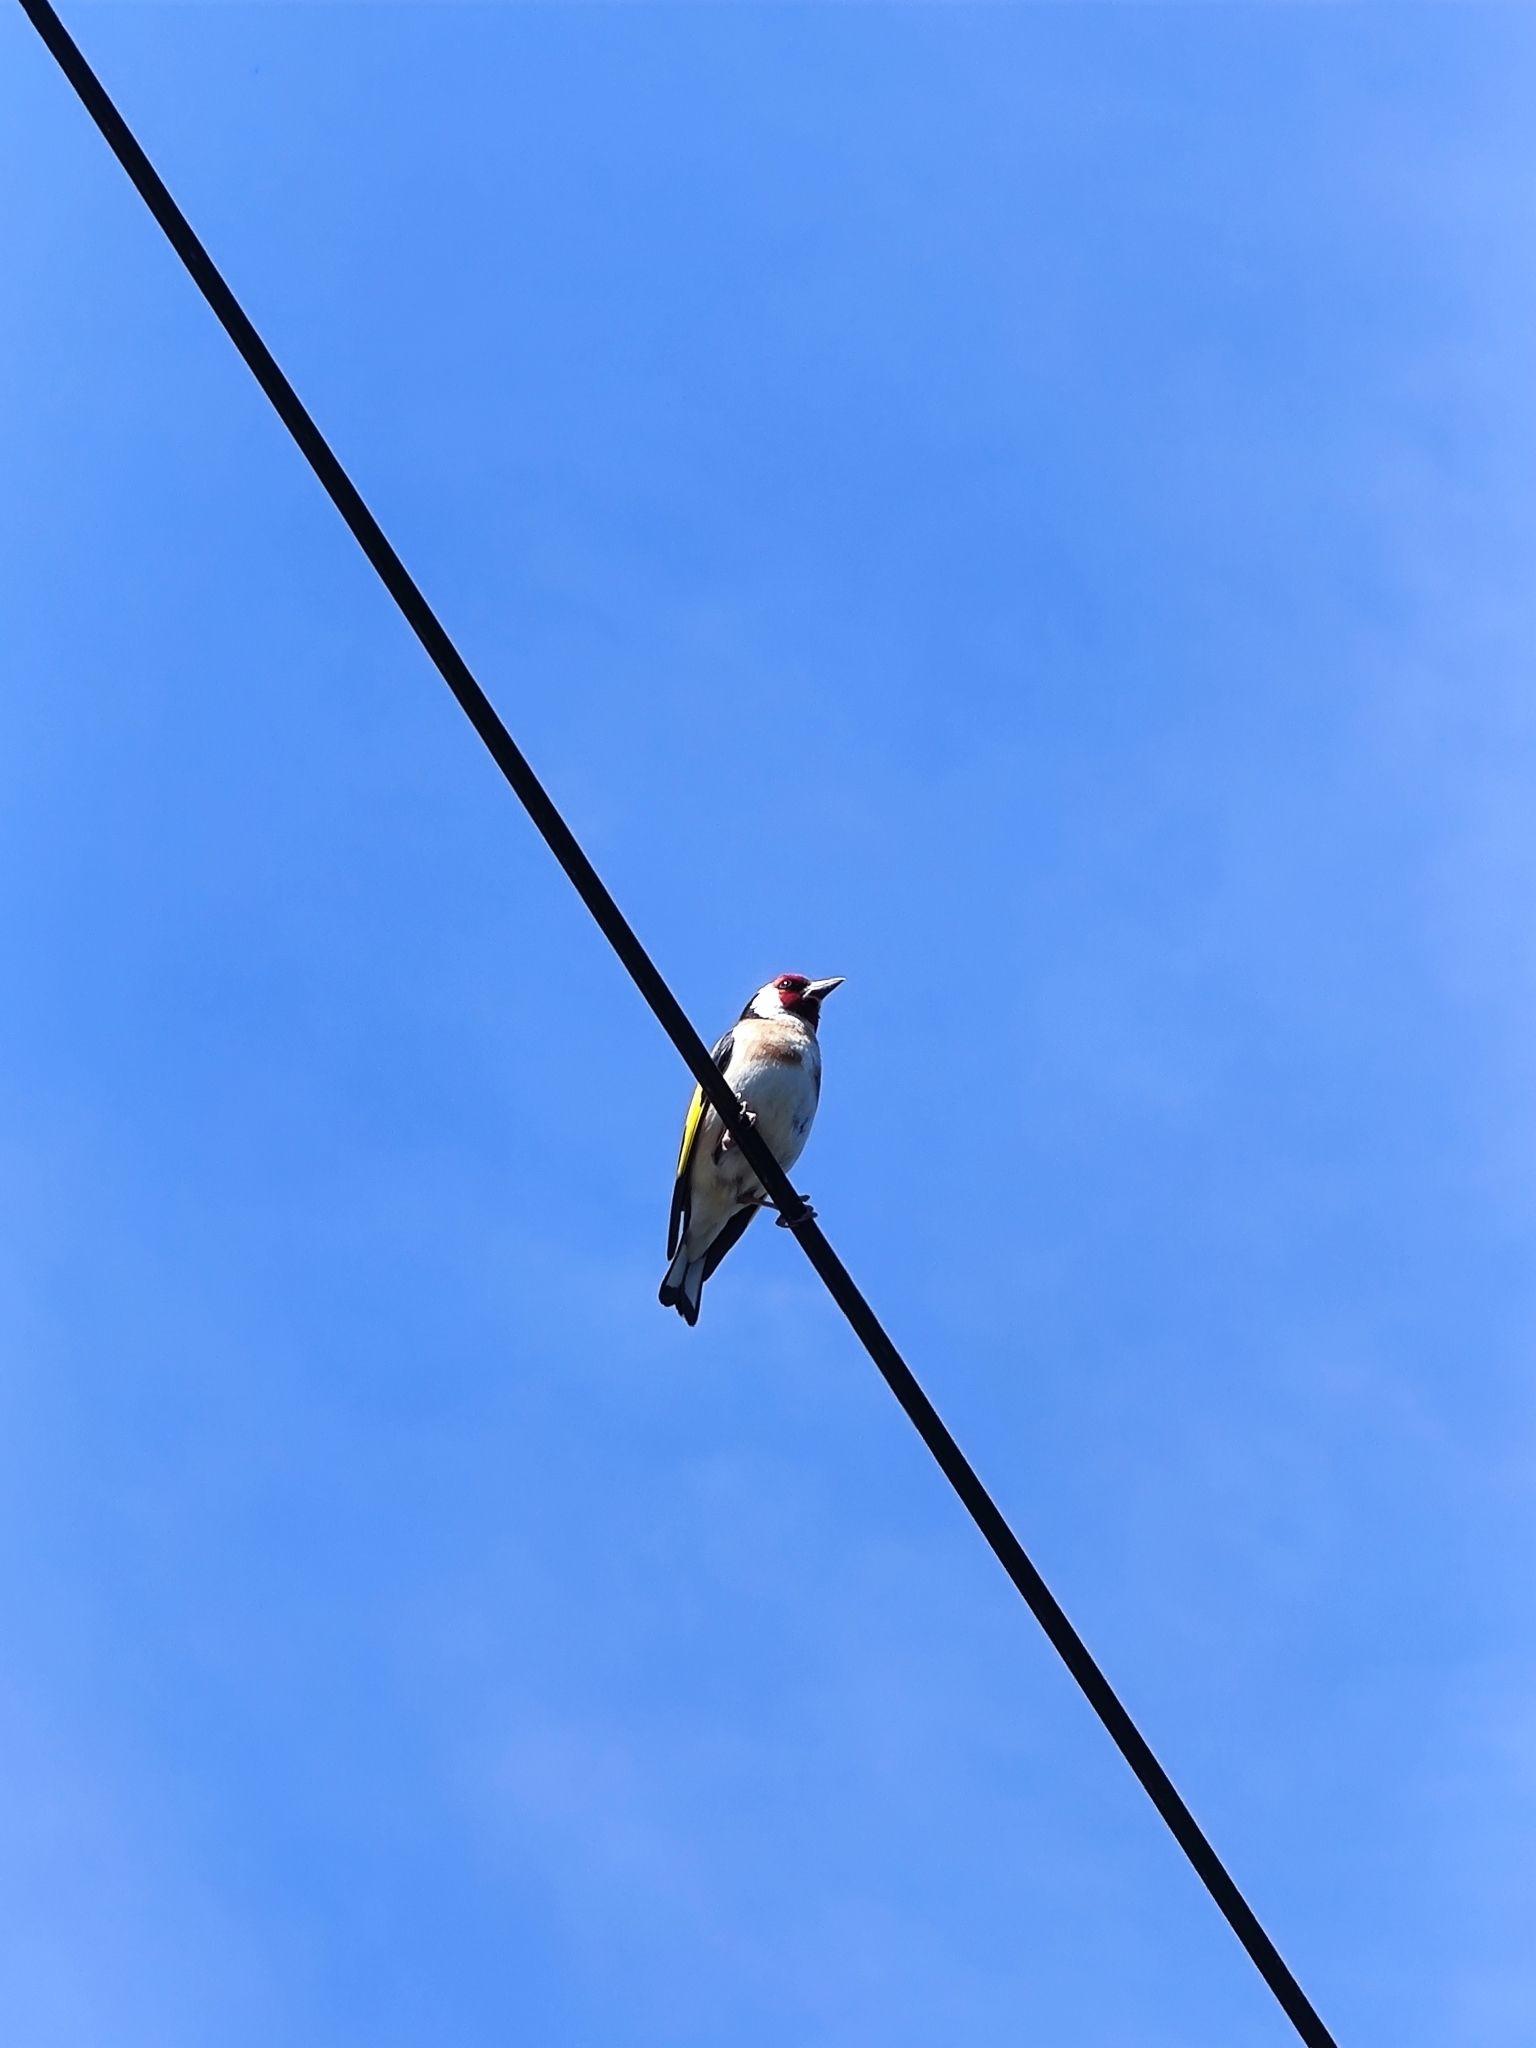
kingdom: Animalia
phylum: Chordata
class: Aves
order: Passeriformes
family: Fringillidae
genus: Carduelis
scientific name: Carduelis carduelis
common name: European goldfinch
